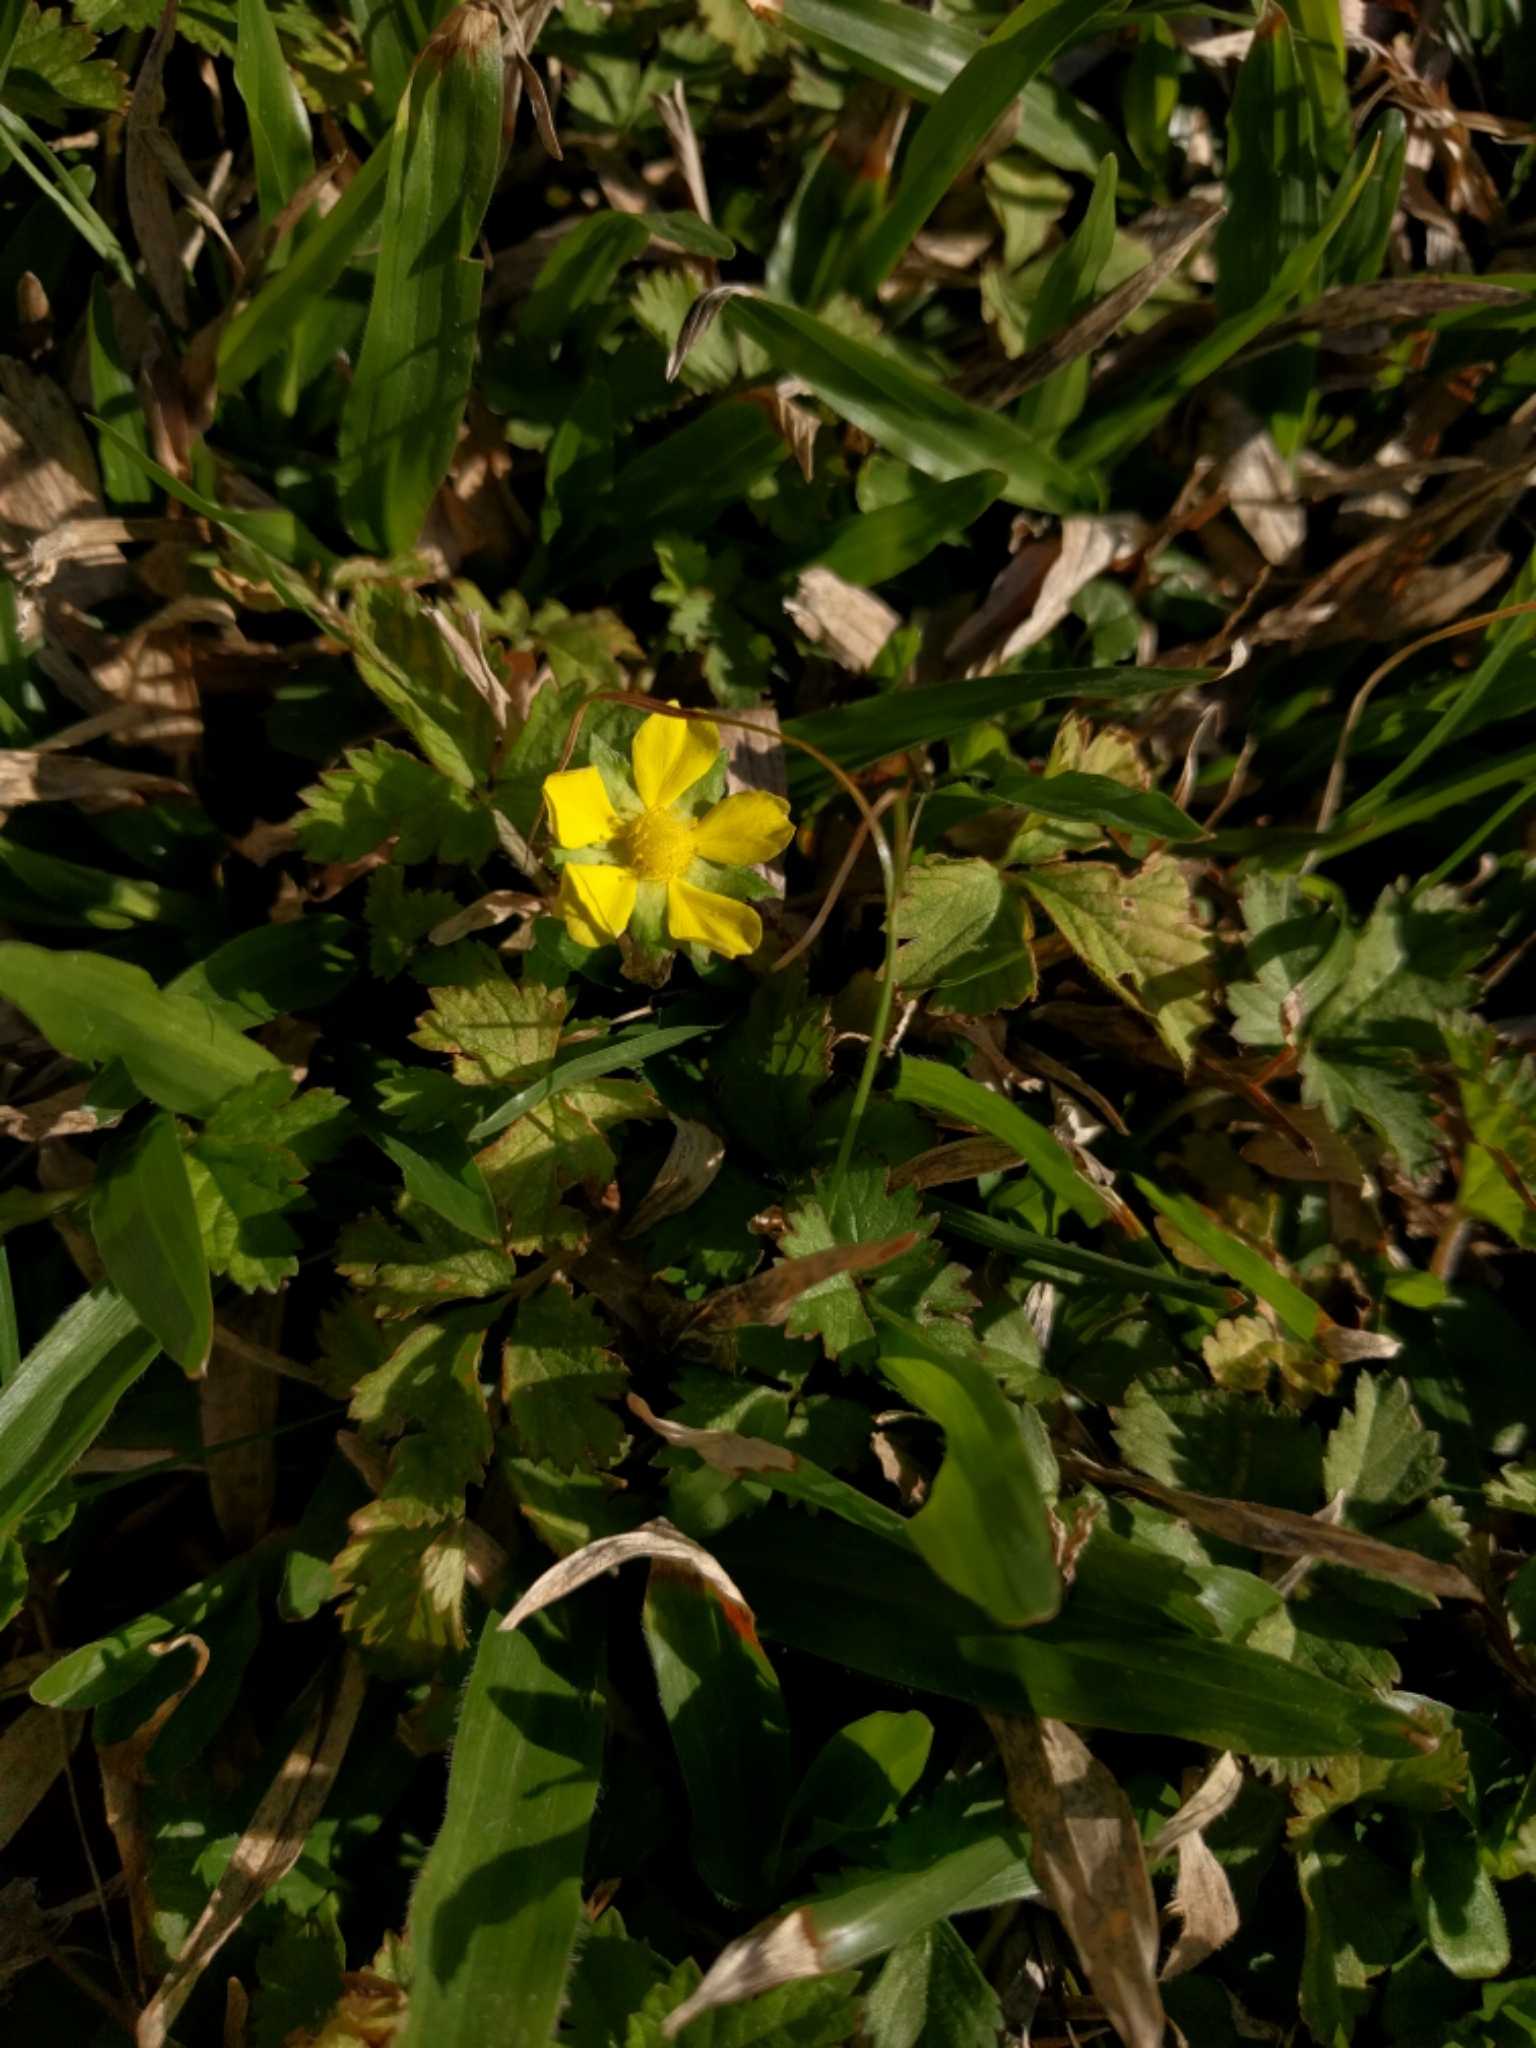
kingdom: Plantae
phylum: Tracheophyta
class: Magnoliopsida
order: Rosales
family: Rosaceae
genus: Potentilla
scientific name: Potentilla indica
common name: Yellow-flowered strawberry
